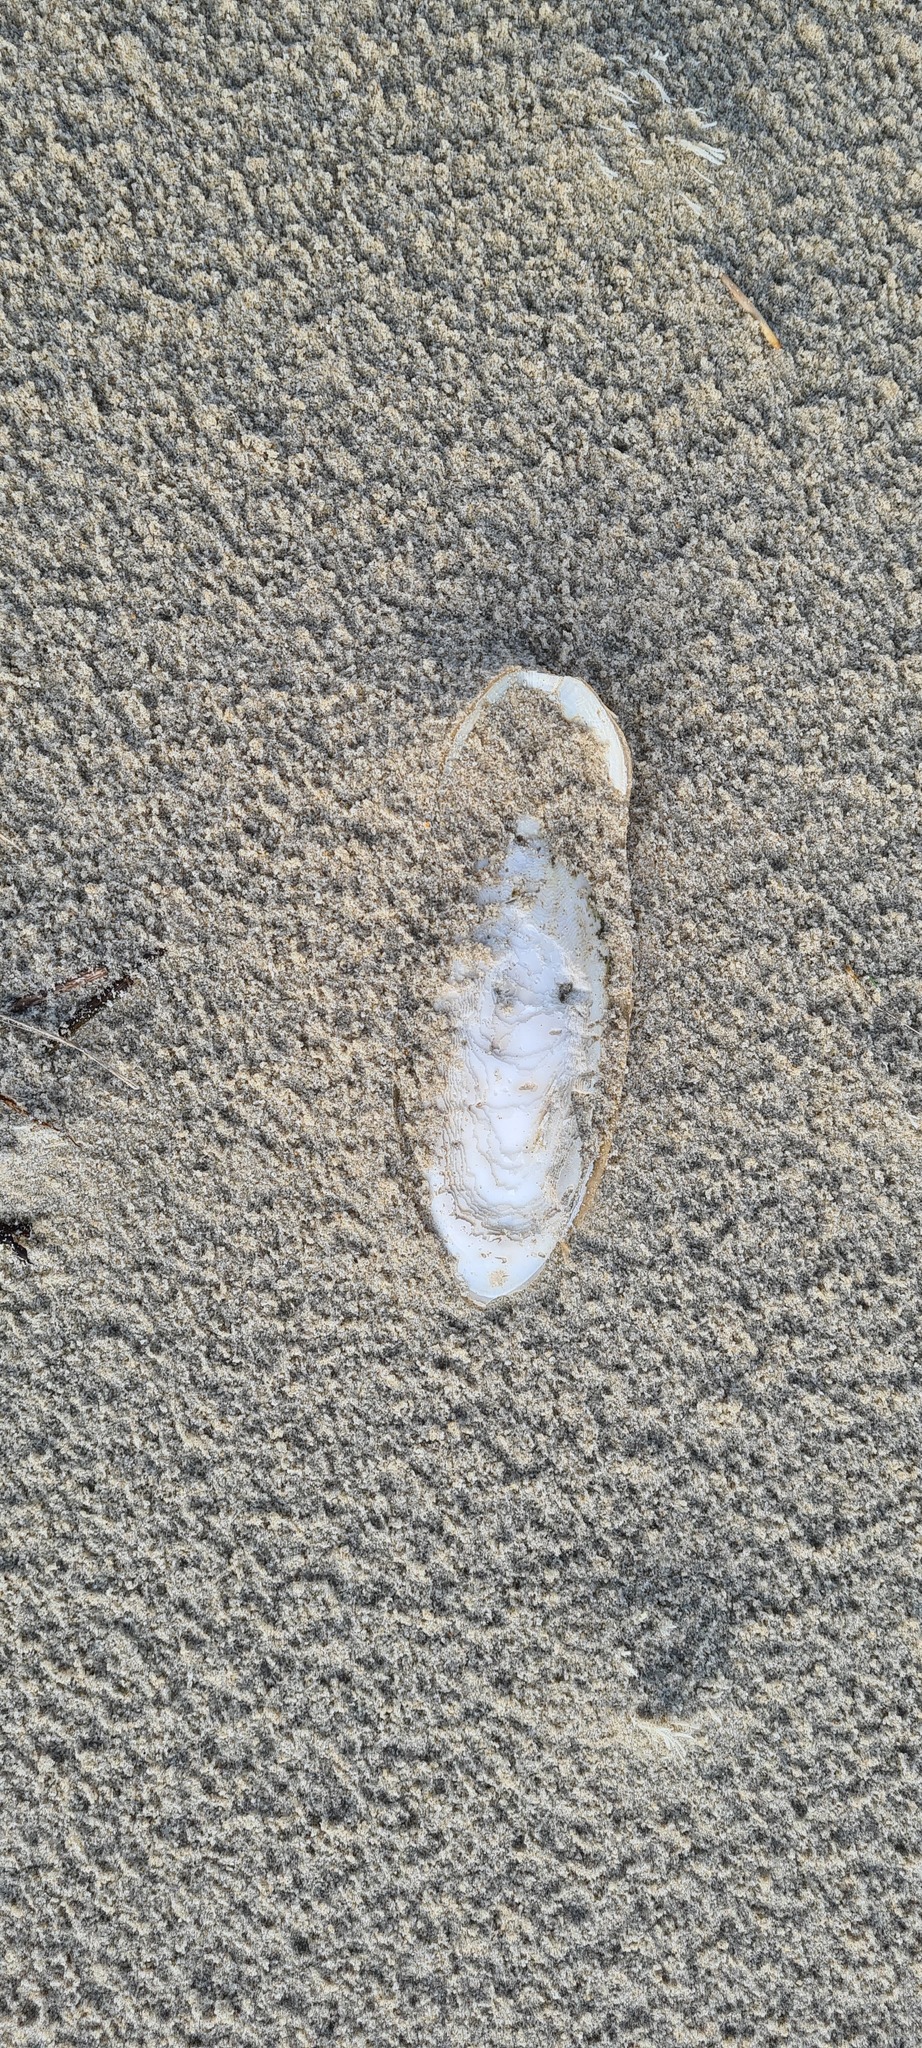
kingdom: Animalia
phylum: Mollusca
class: Cephalopoda
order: Sepiida
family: Sepiidae
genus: Sepia
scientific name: Sepia officinalis
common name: Common cuttlefish
